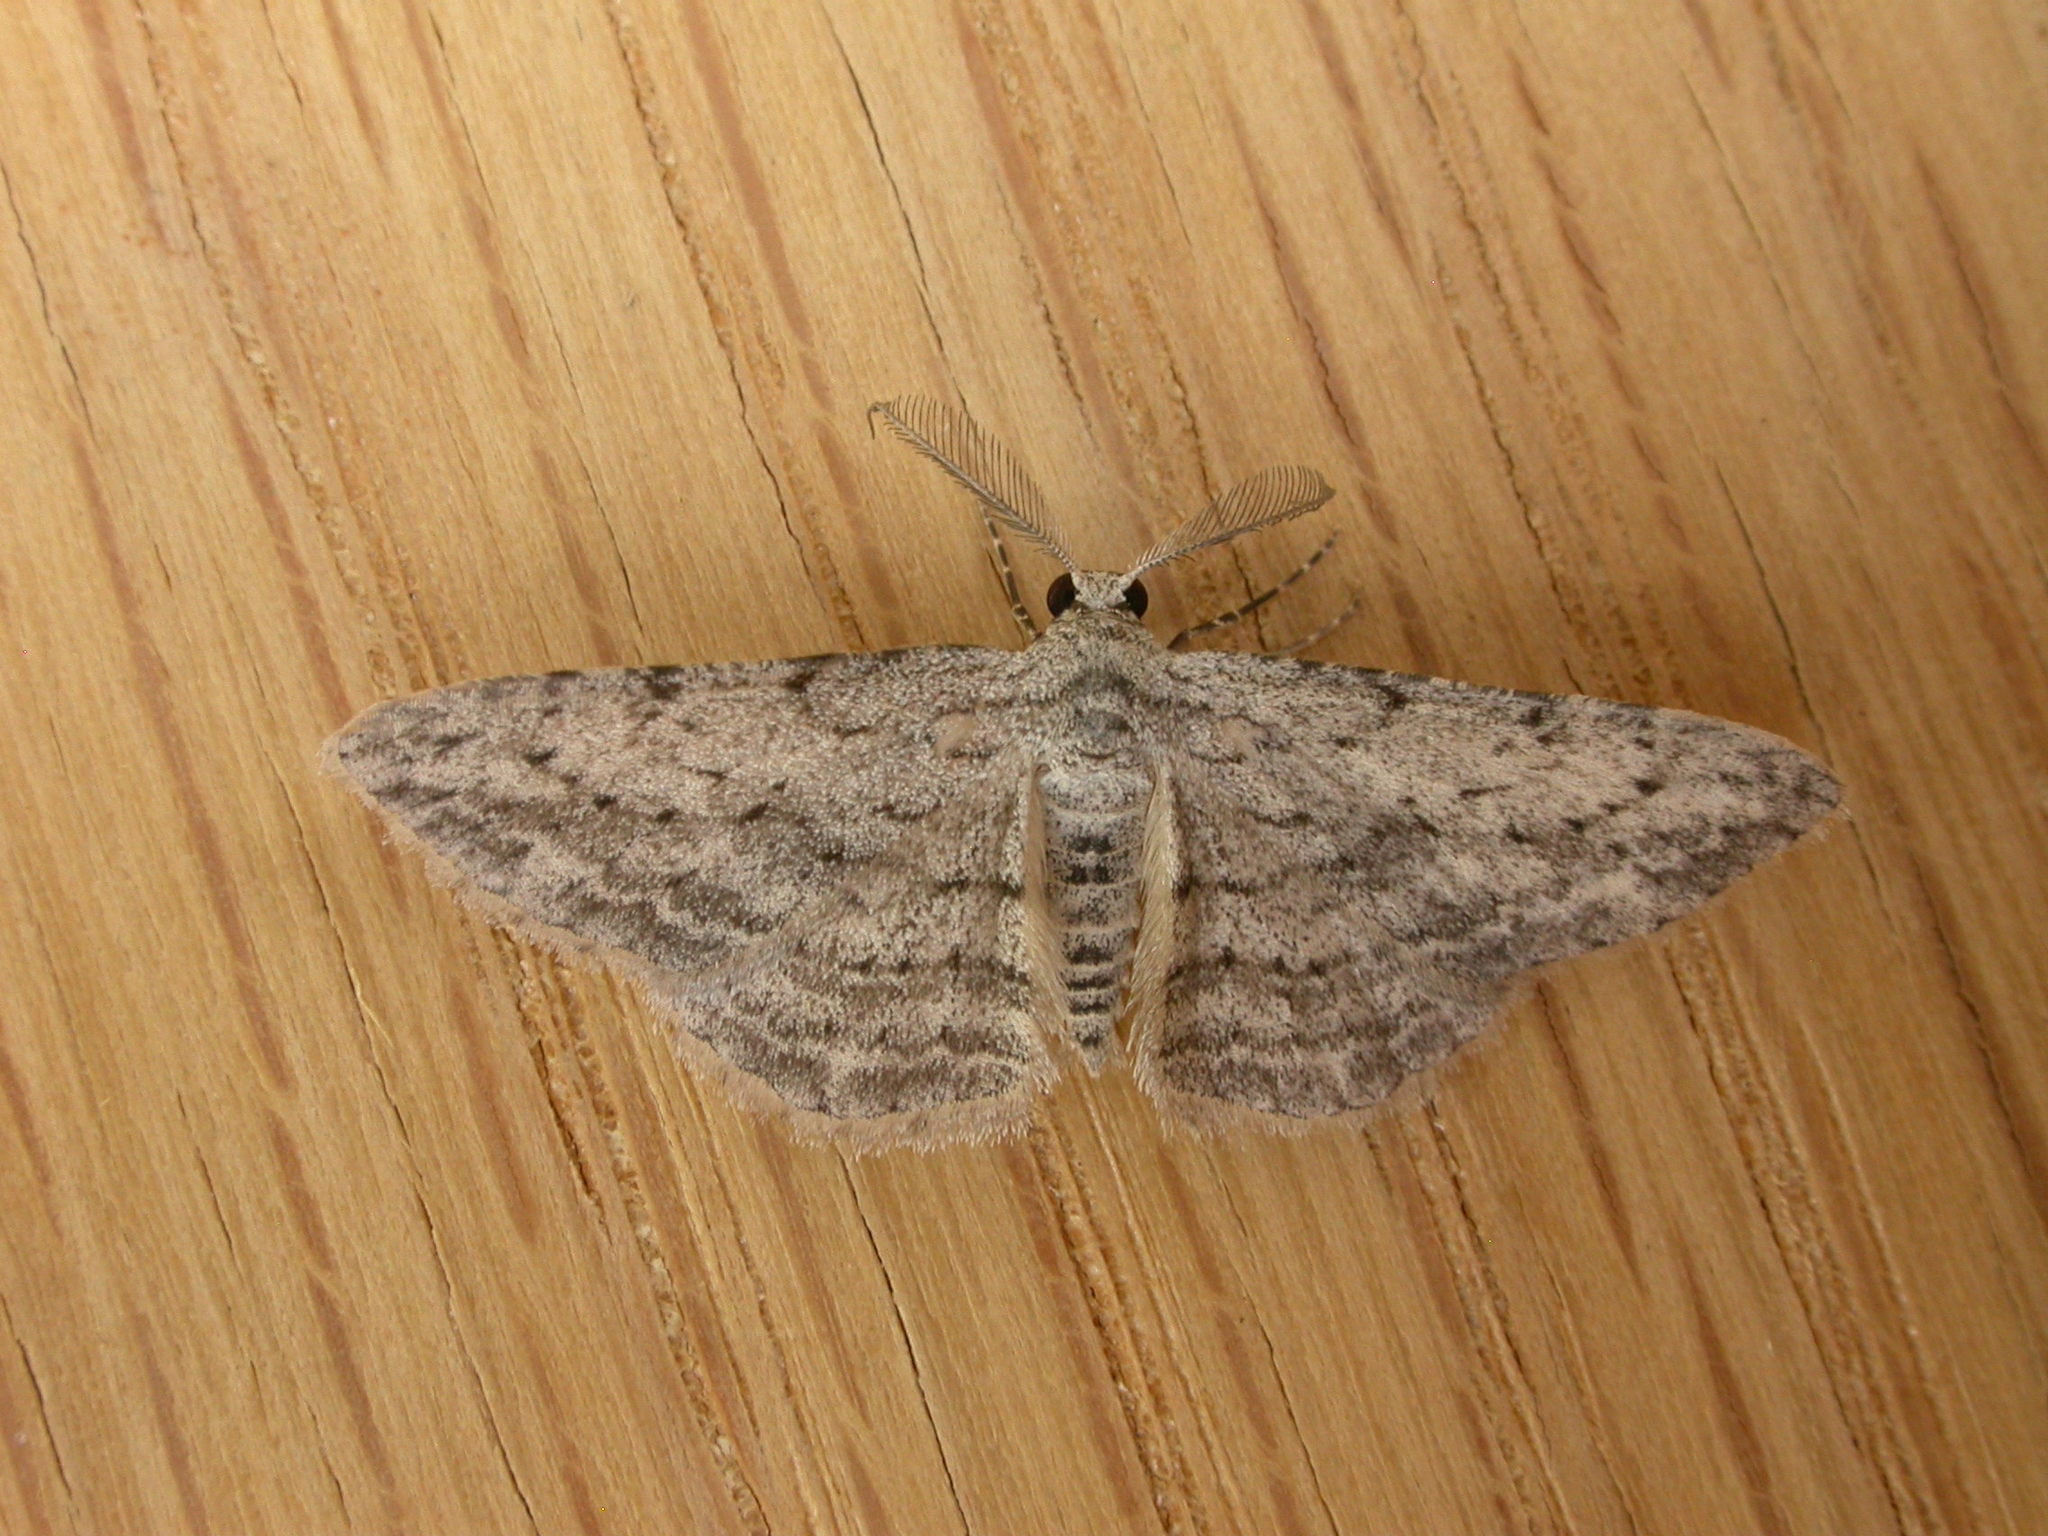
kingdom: Animalia
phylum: Arthropoda
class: Insecta
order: Lepidoptera
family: Geometridae
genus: Phelotis
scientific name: Phelotis cognata
